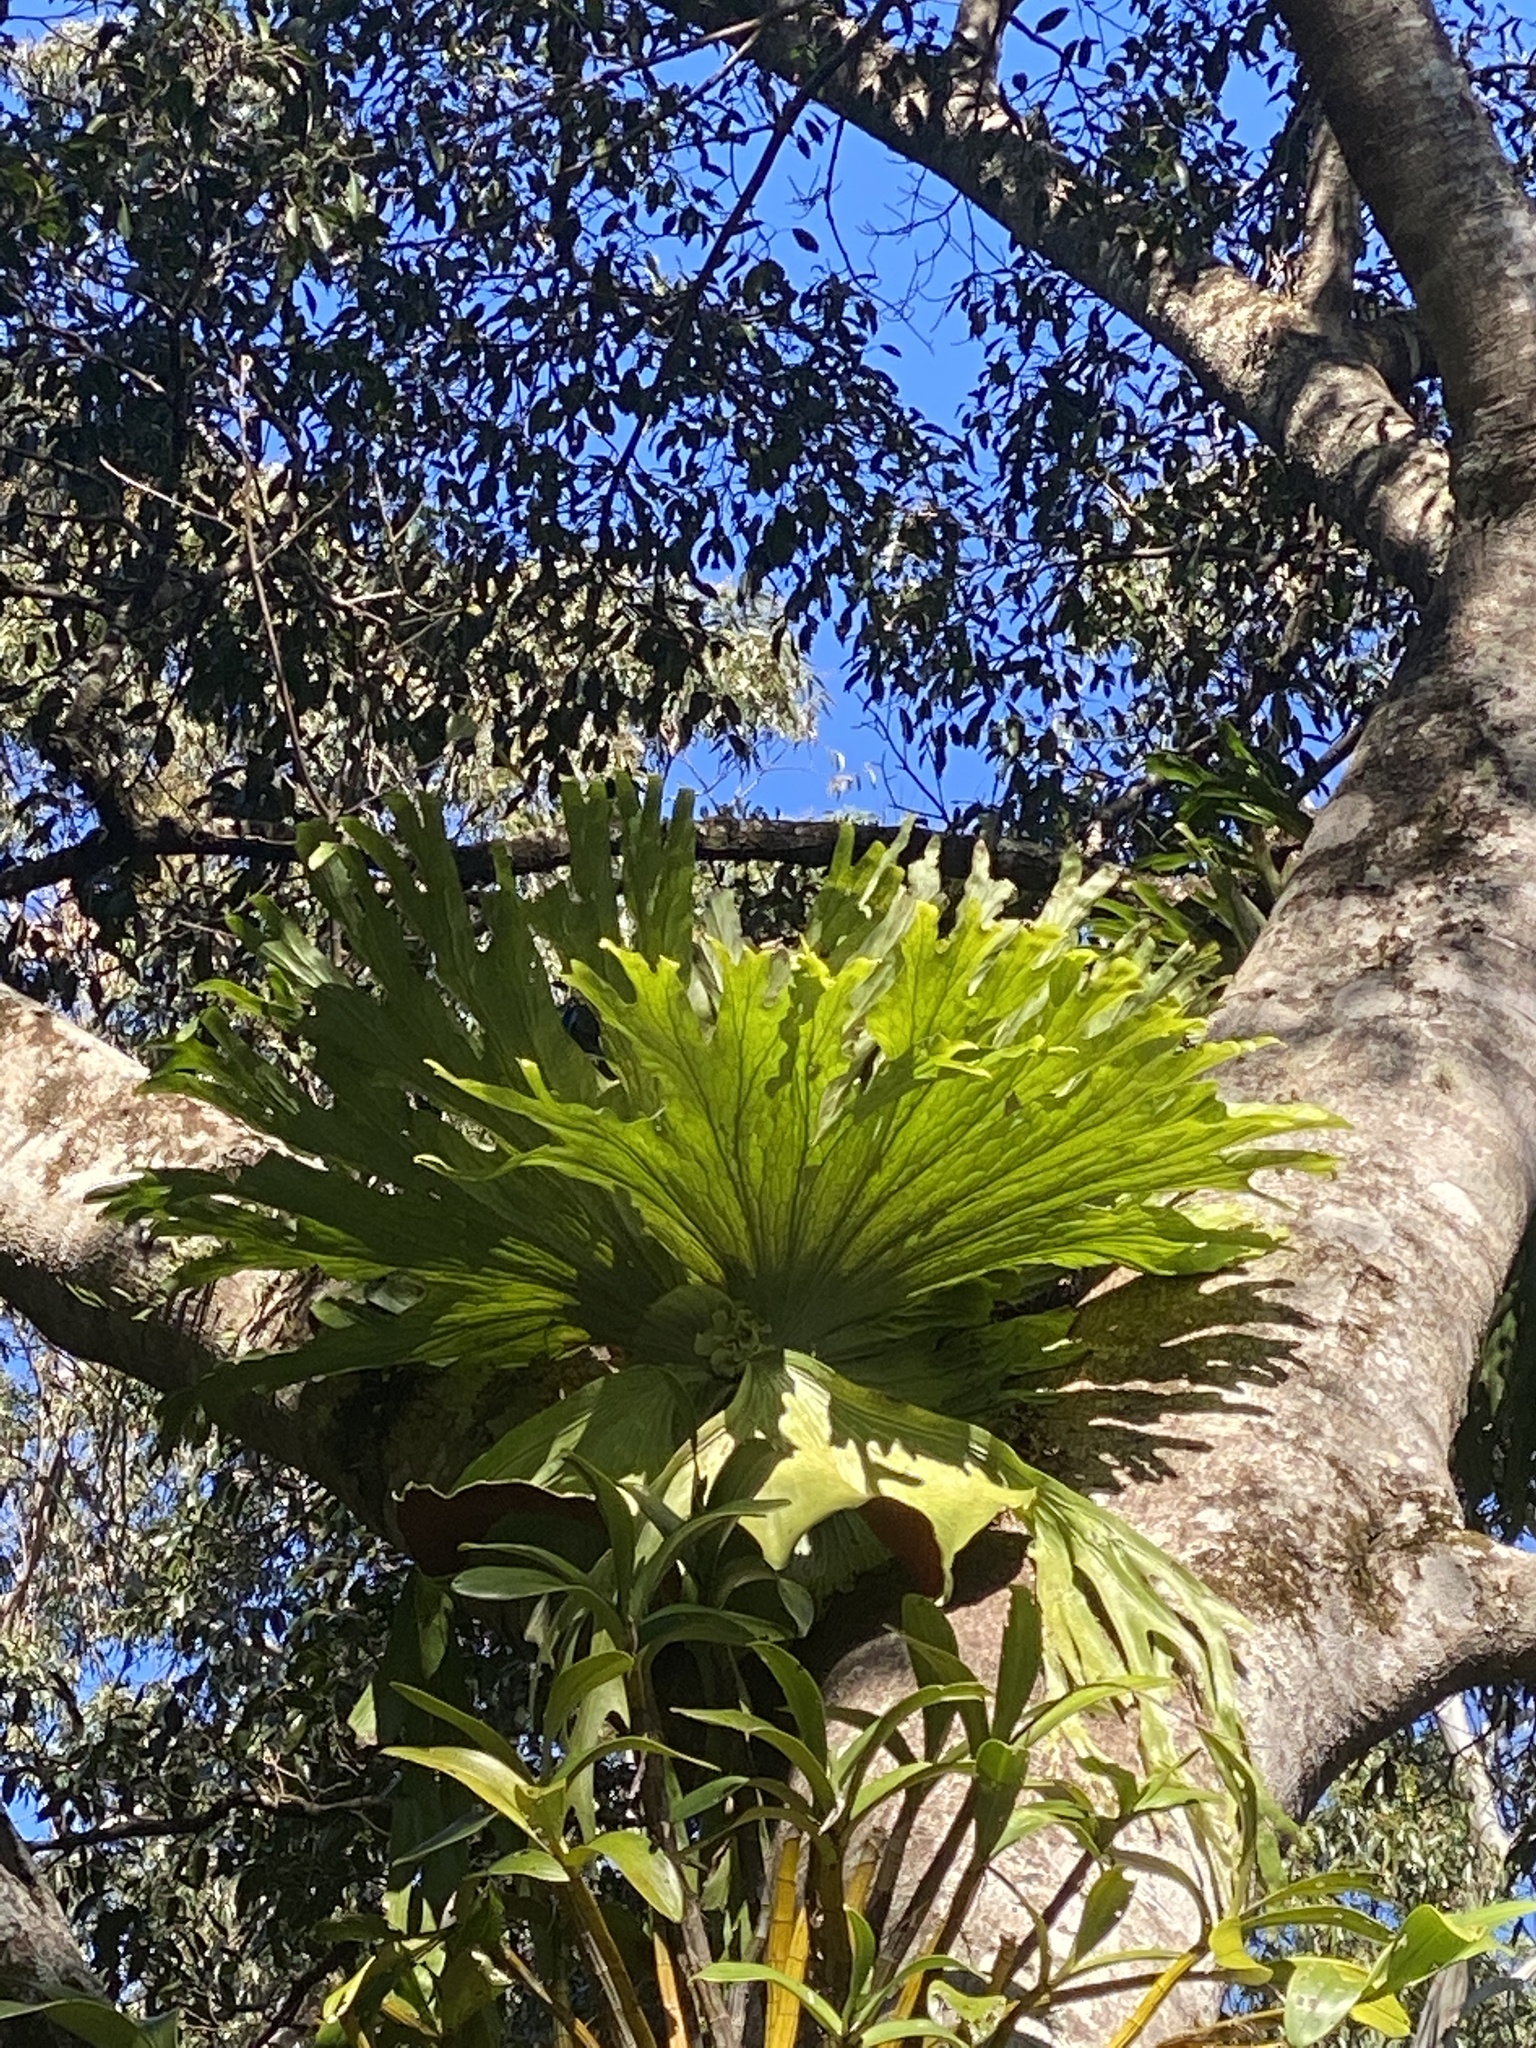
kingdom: Plantae
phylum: Tracheophyta
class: Polypodiopsida
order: Polypodiales
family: Polypodiaceae
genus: Platycerium
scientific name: Platycerium superbum
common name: Staghorn fern
